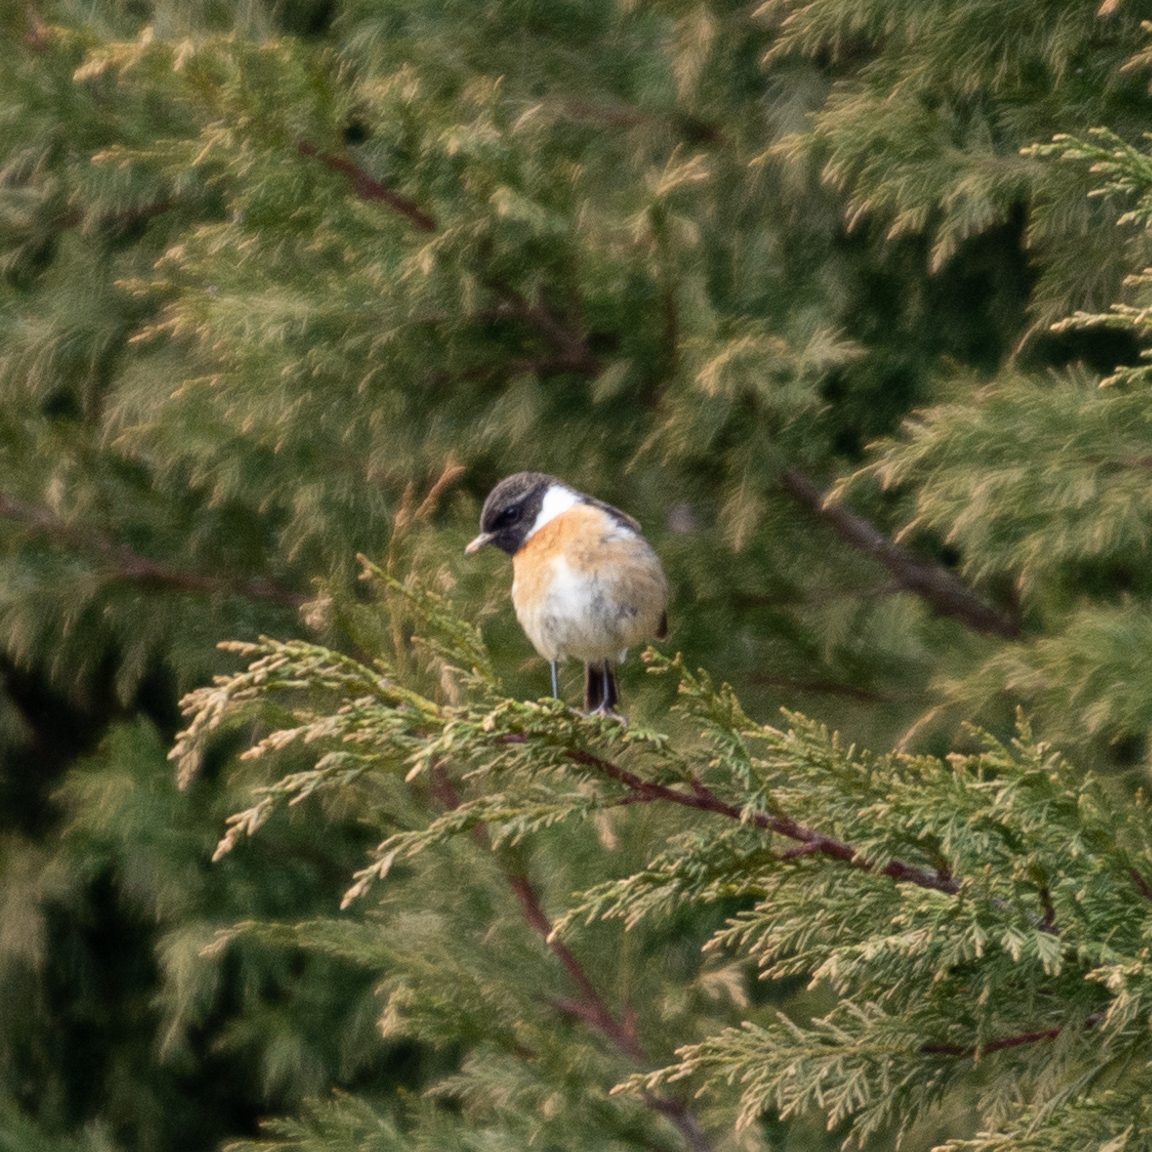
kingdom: Animalia
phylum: Chordata
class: Aves
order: Passeriformes
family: Muscicapidae
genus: Saxicola
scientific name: Saxicola rubicola
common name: European stonechat
